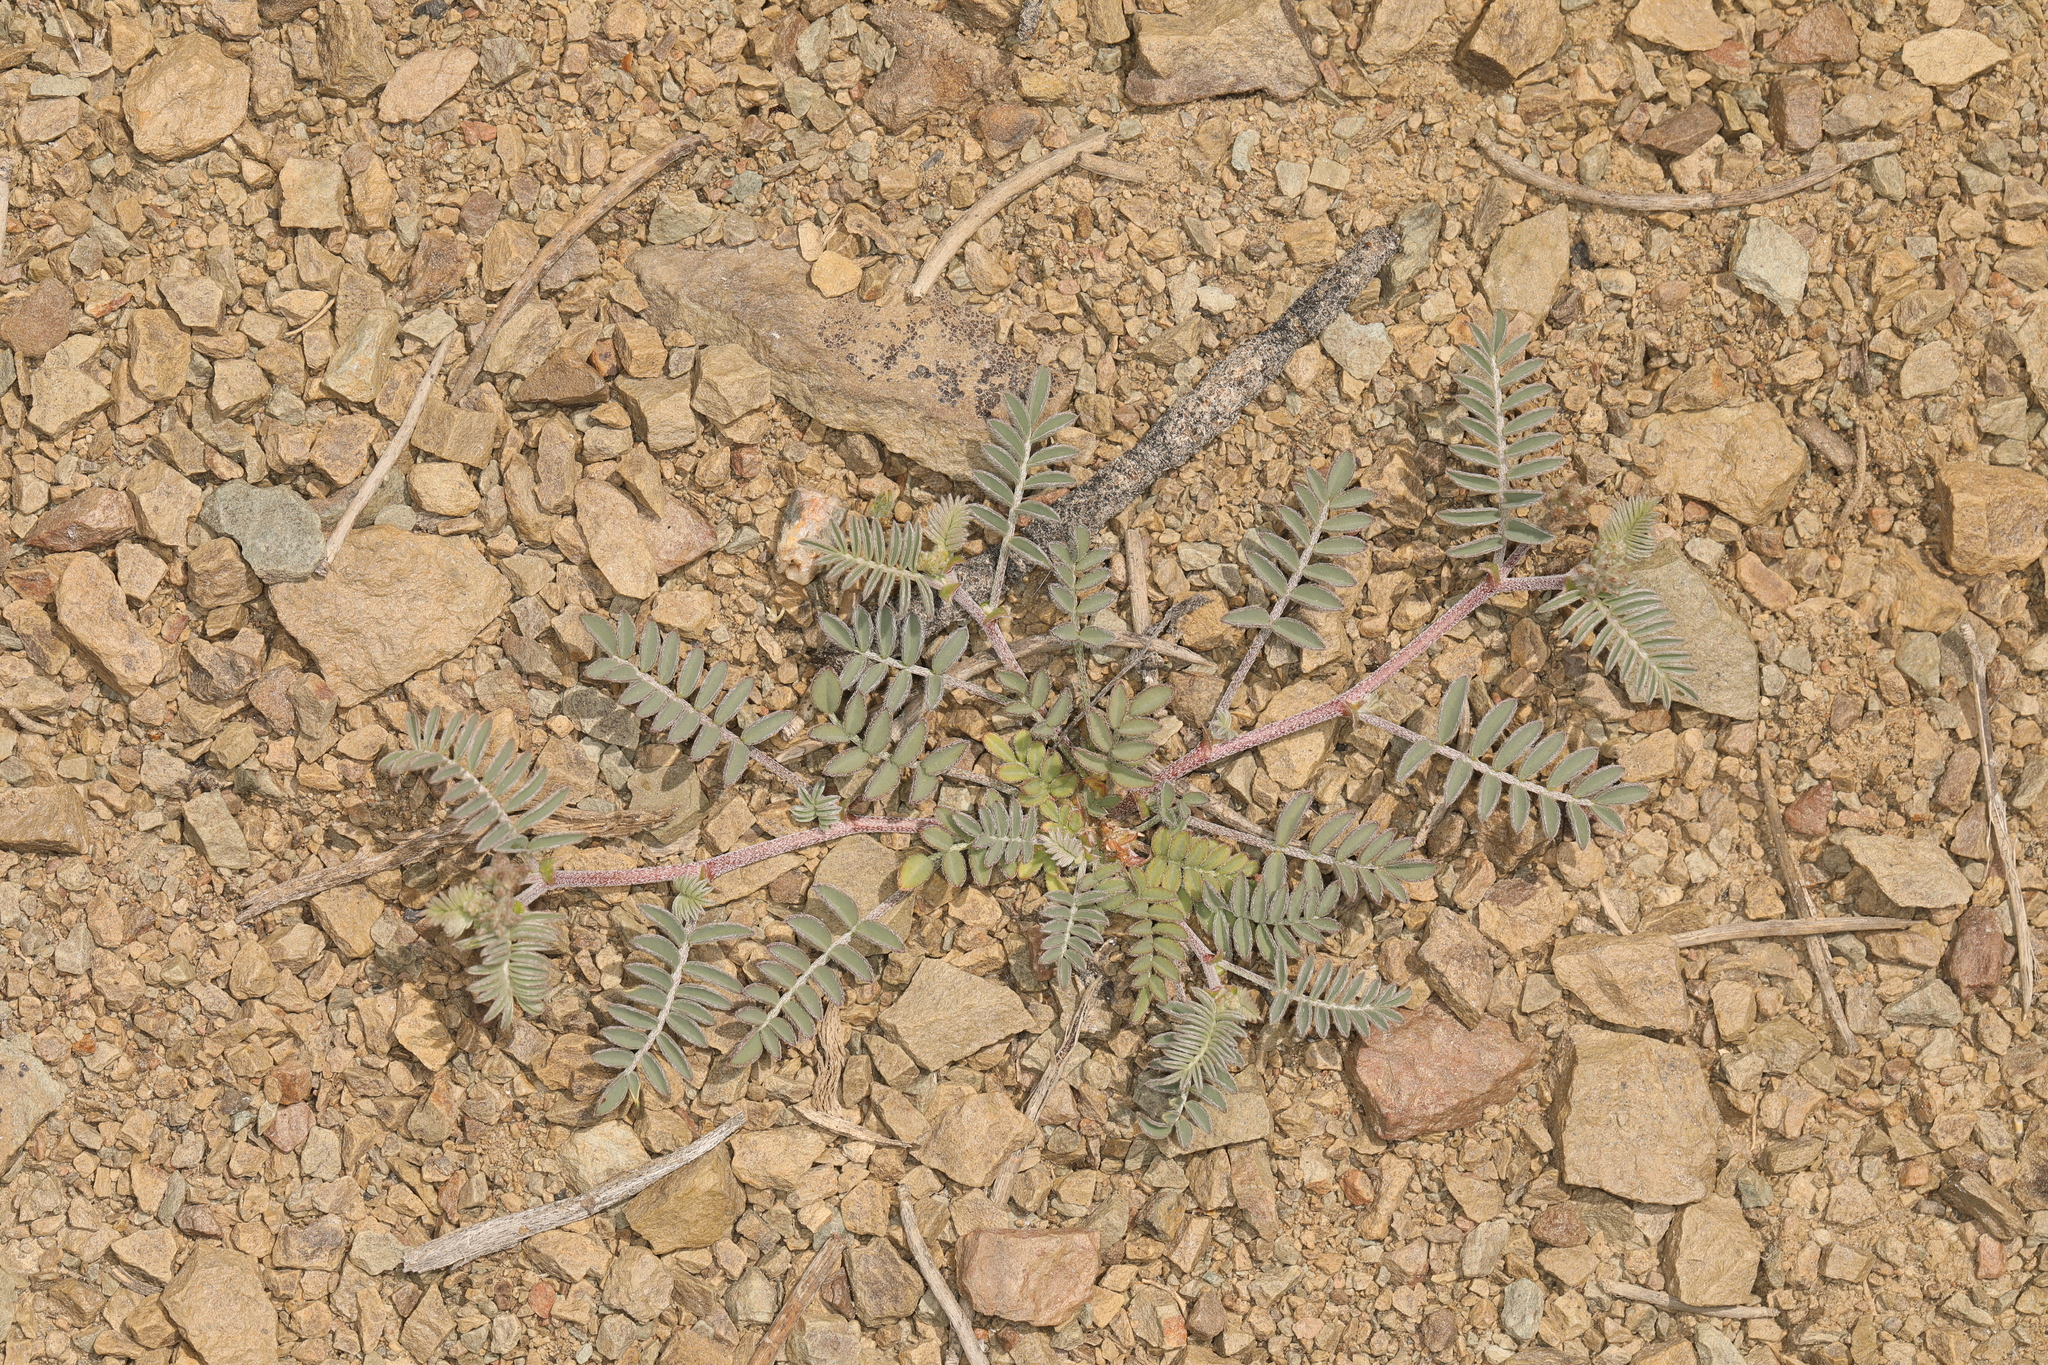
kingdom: Plantae
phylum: Tracheophyta
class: Magnoliopsida
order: Fabales
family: Fabaceae
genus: Astragalus
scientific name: Astragalus inyoensis
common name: Inyo locoweed
